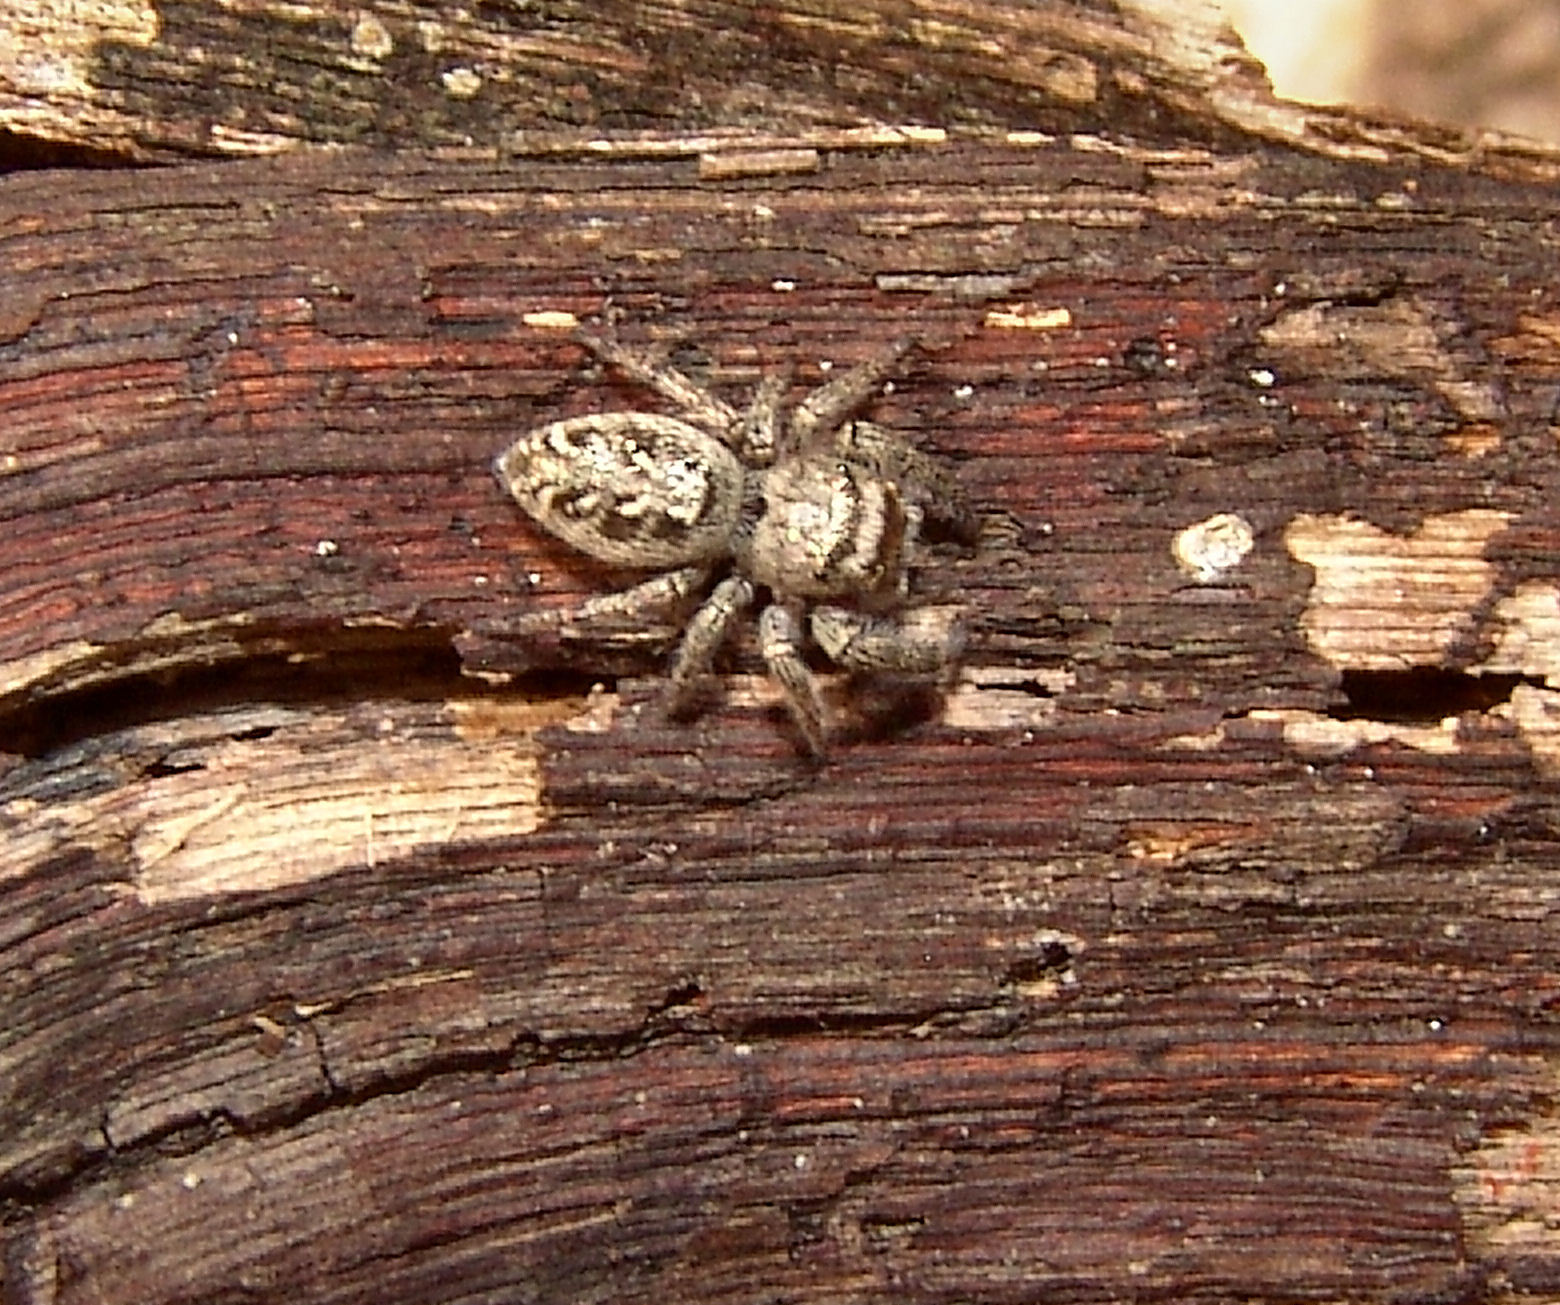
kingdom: Animalia
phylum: Arthropoda
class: Arachnida
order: Araneae
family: Salticidae
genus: Eris
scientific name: Eris militaris
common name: Bronze jumper
